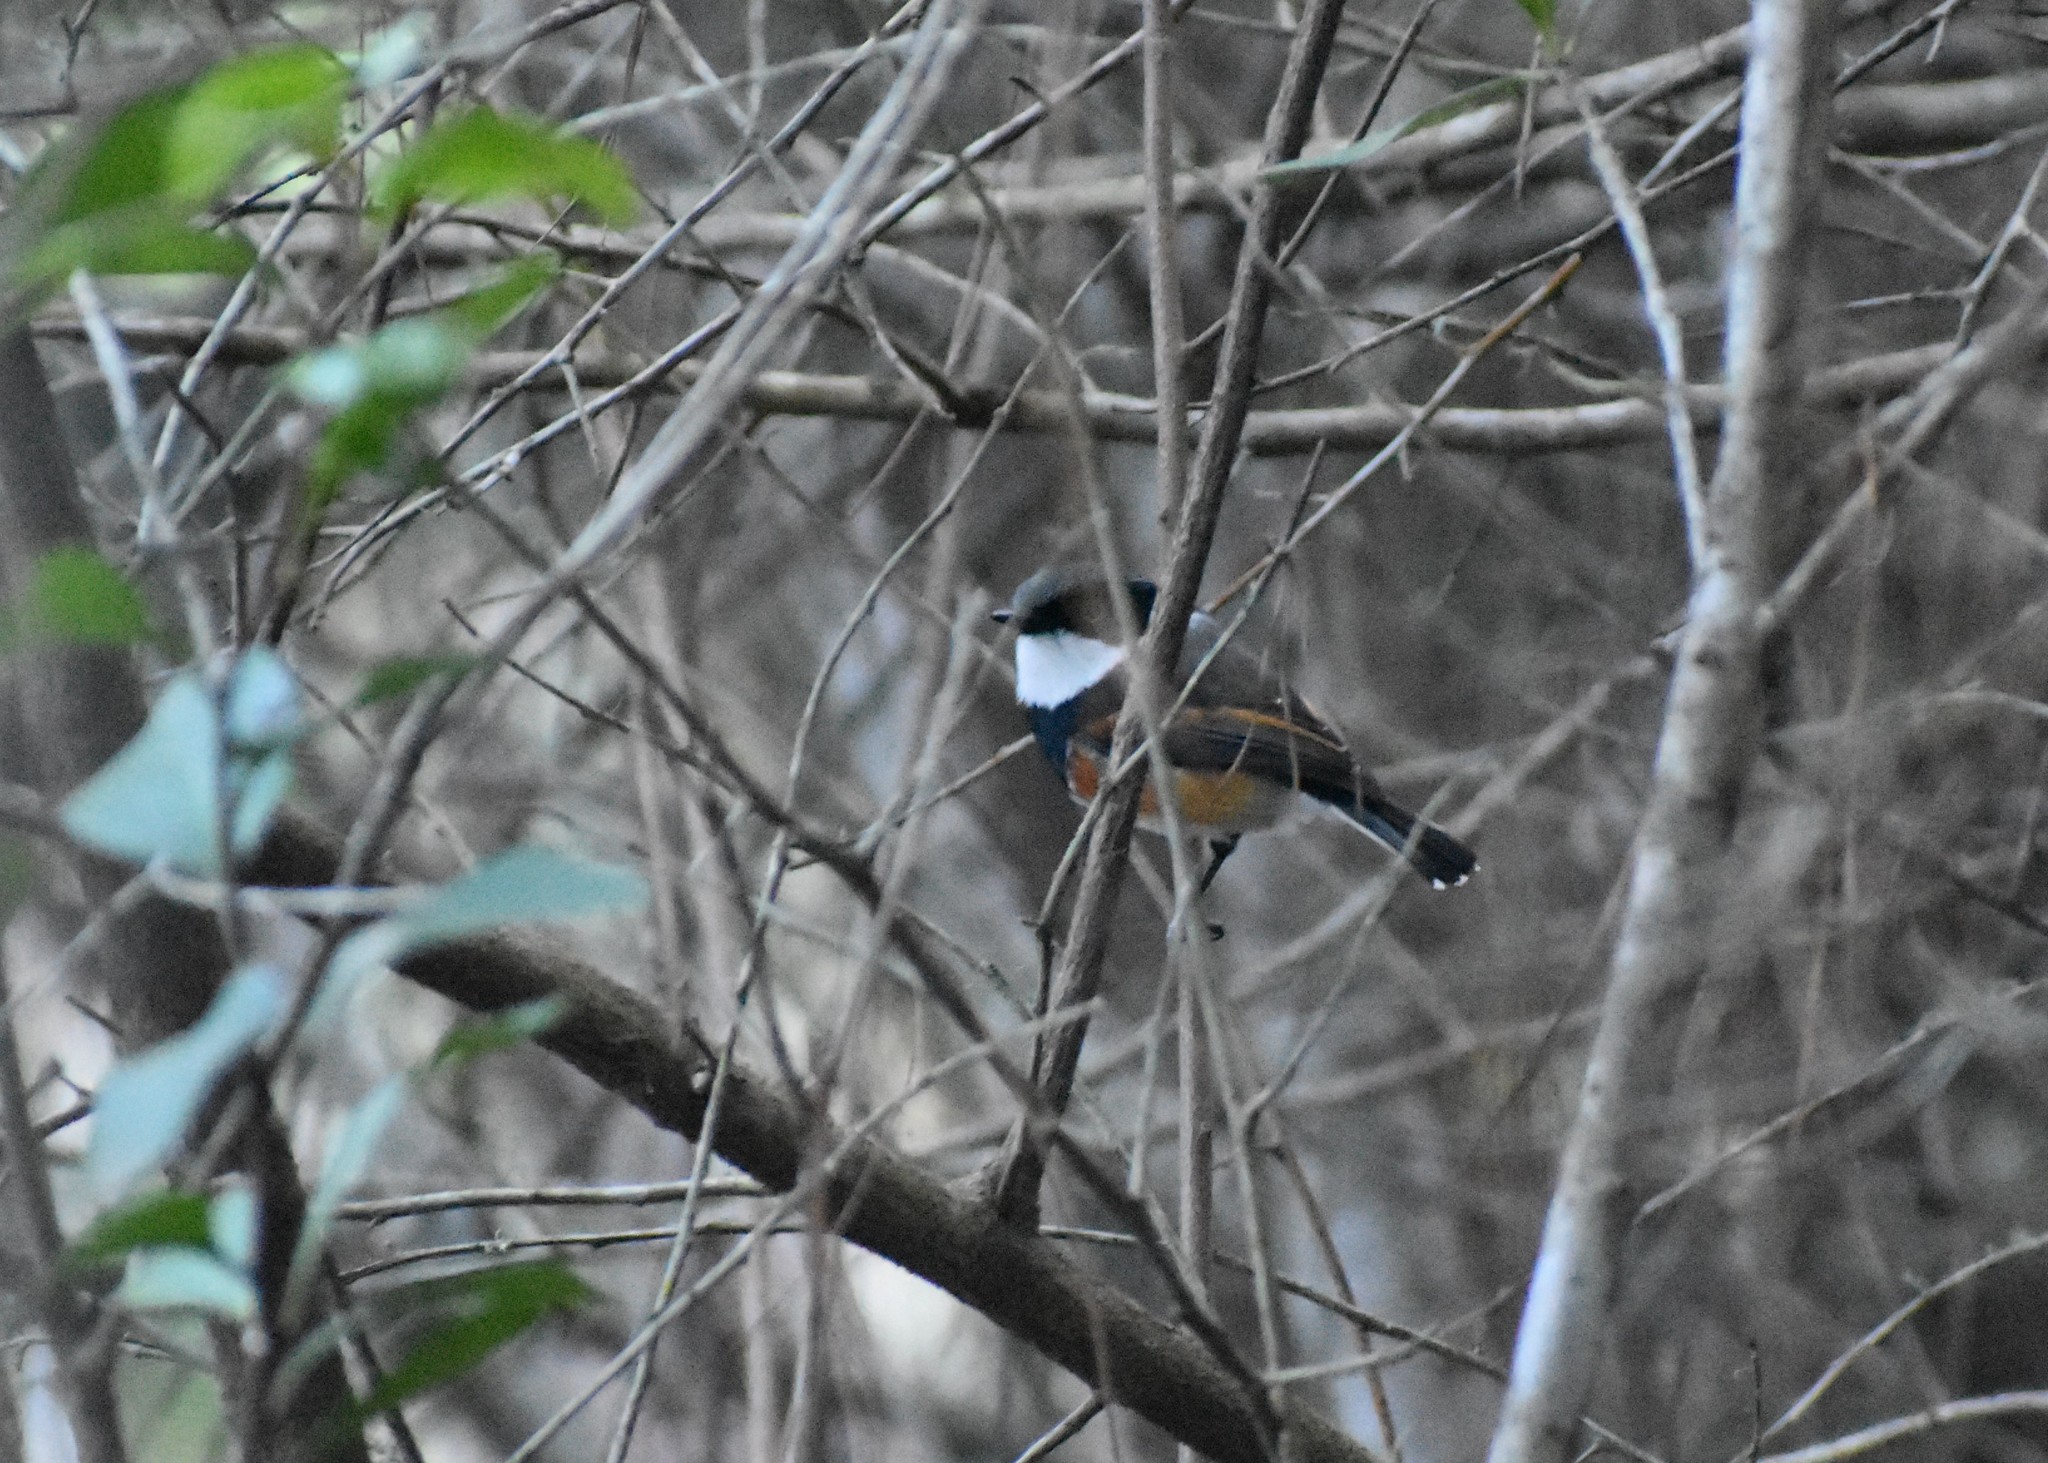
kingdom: Animalia
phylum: Chordata
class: Aves
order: Passeriformes
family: Platysteiridae
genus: Batis
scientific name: Batis capensis
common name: Cape batis
